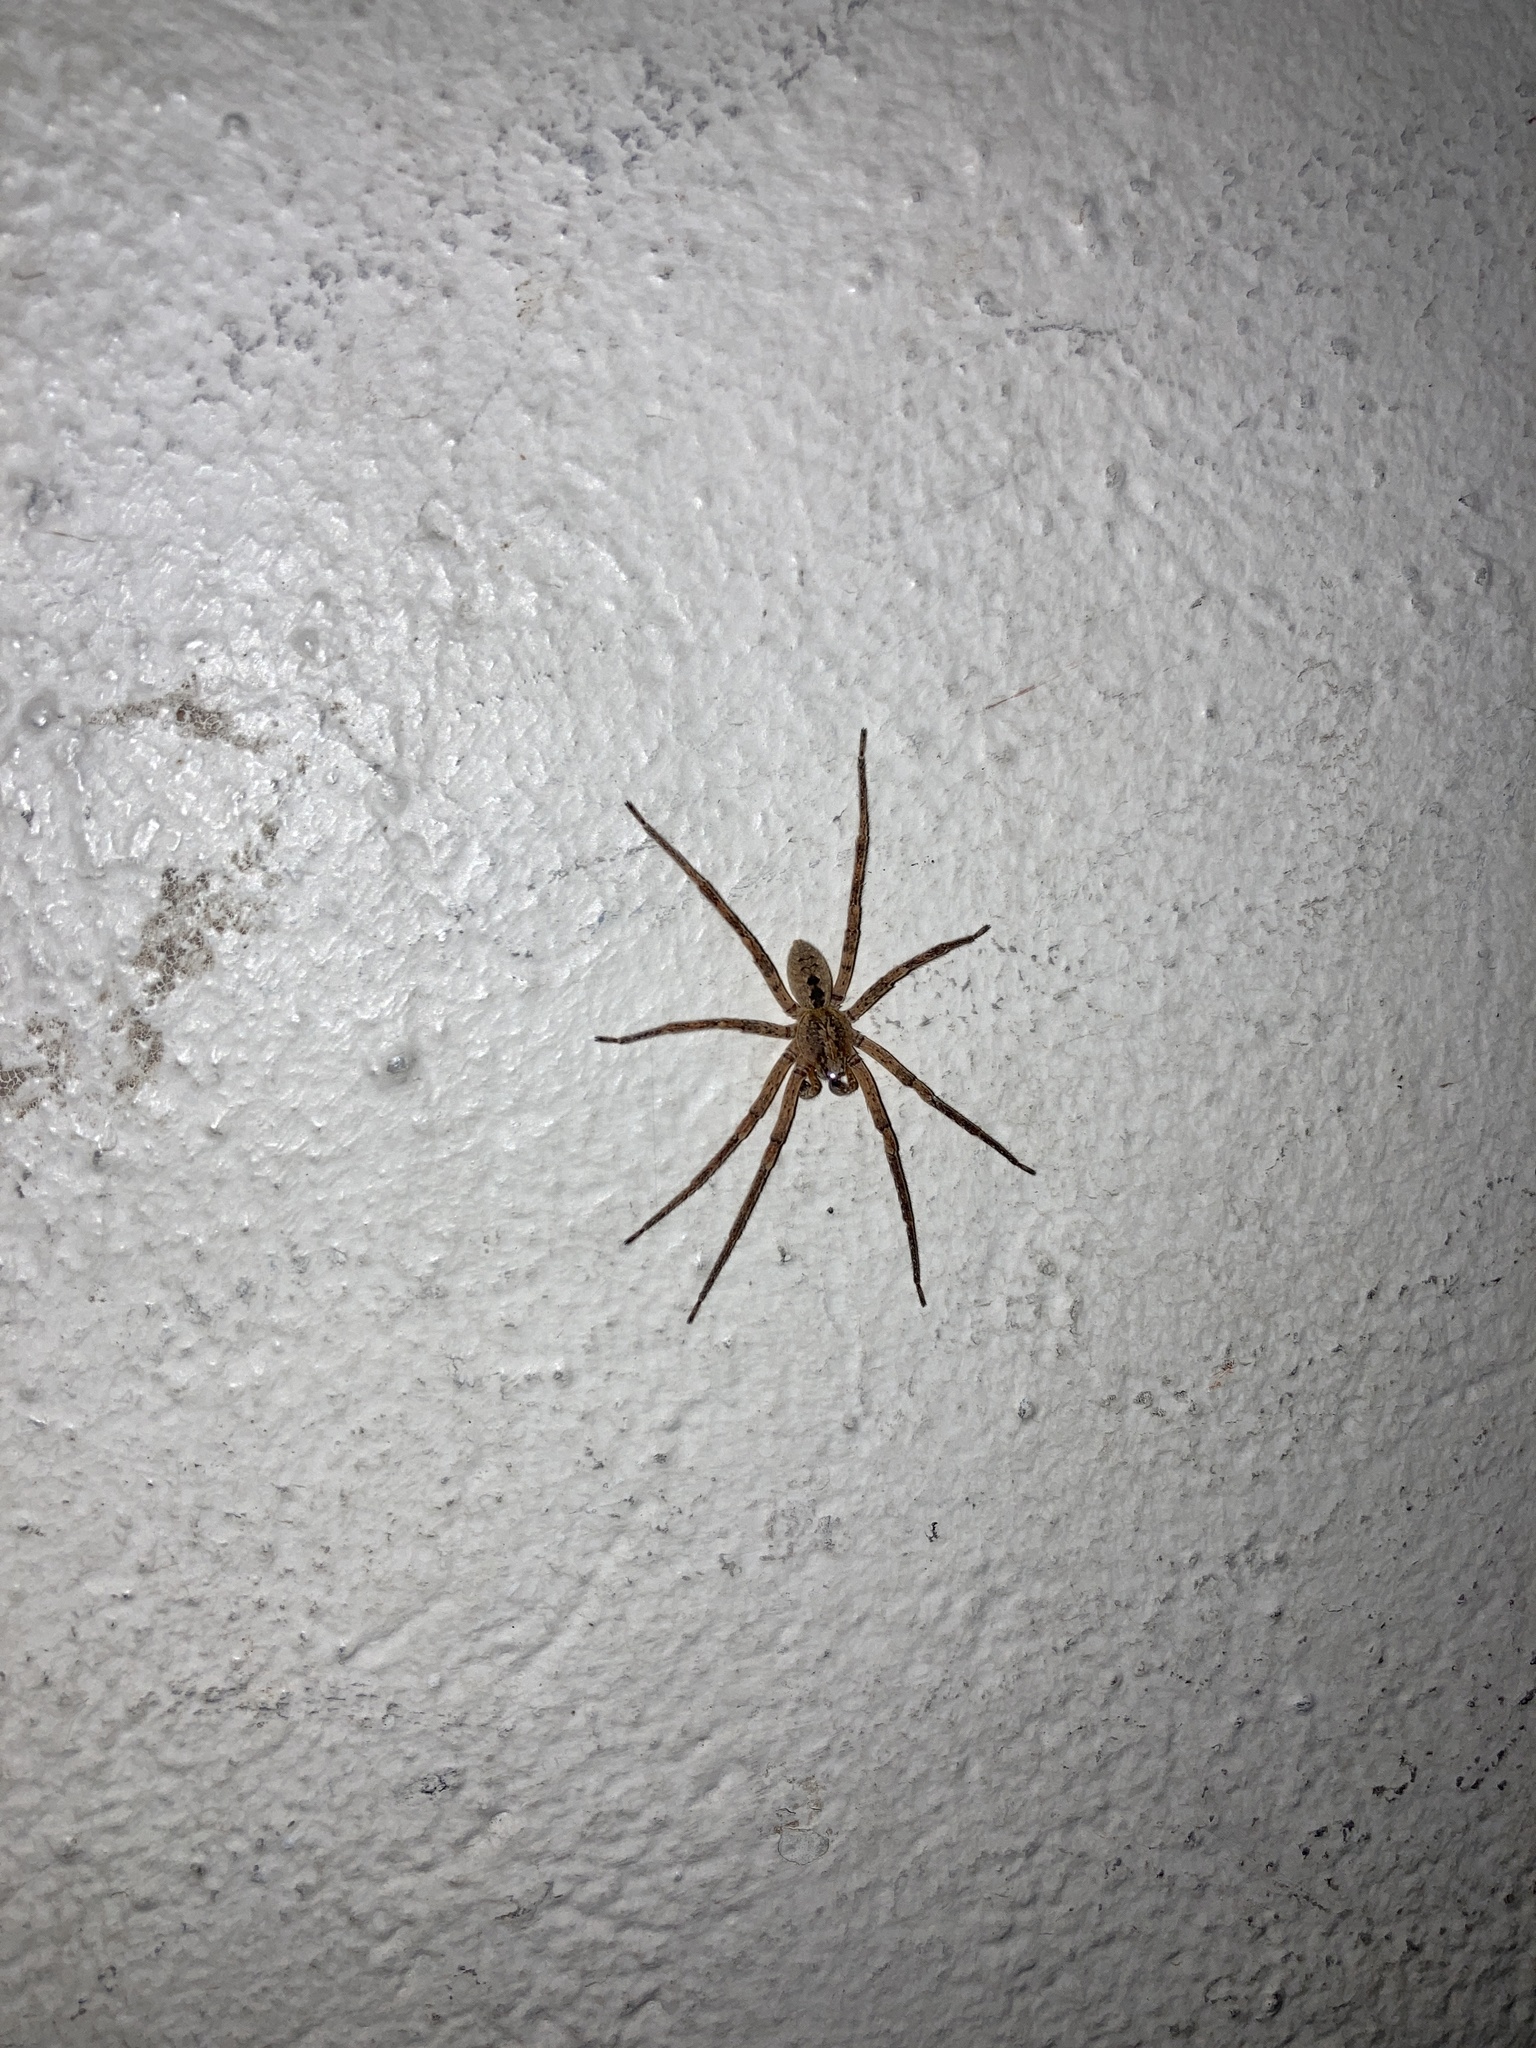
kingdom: Animalia
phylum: Arthropoda
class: Arachnida
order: Araneae
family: Zoropsidae
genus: Zoropsis
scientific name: Zoropsis spinimana
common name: Zoropsid spider
